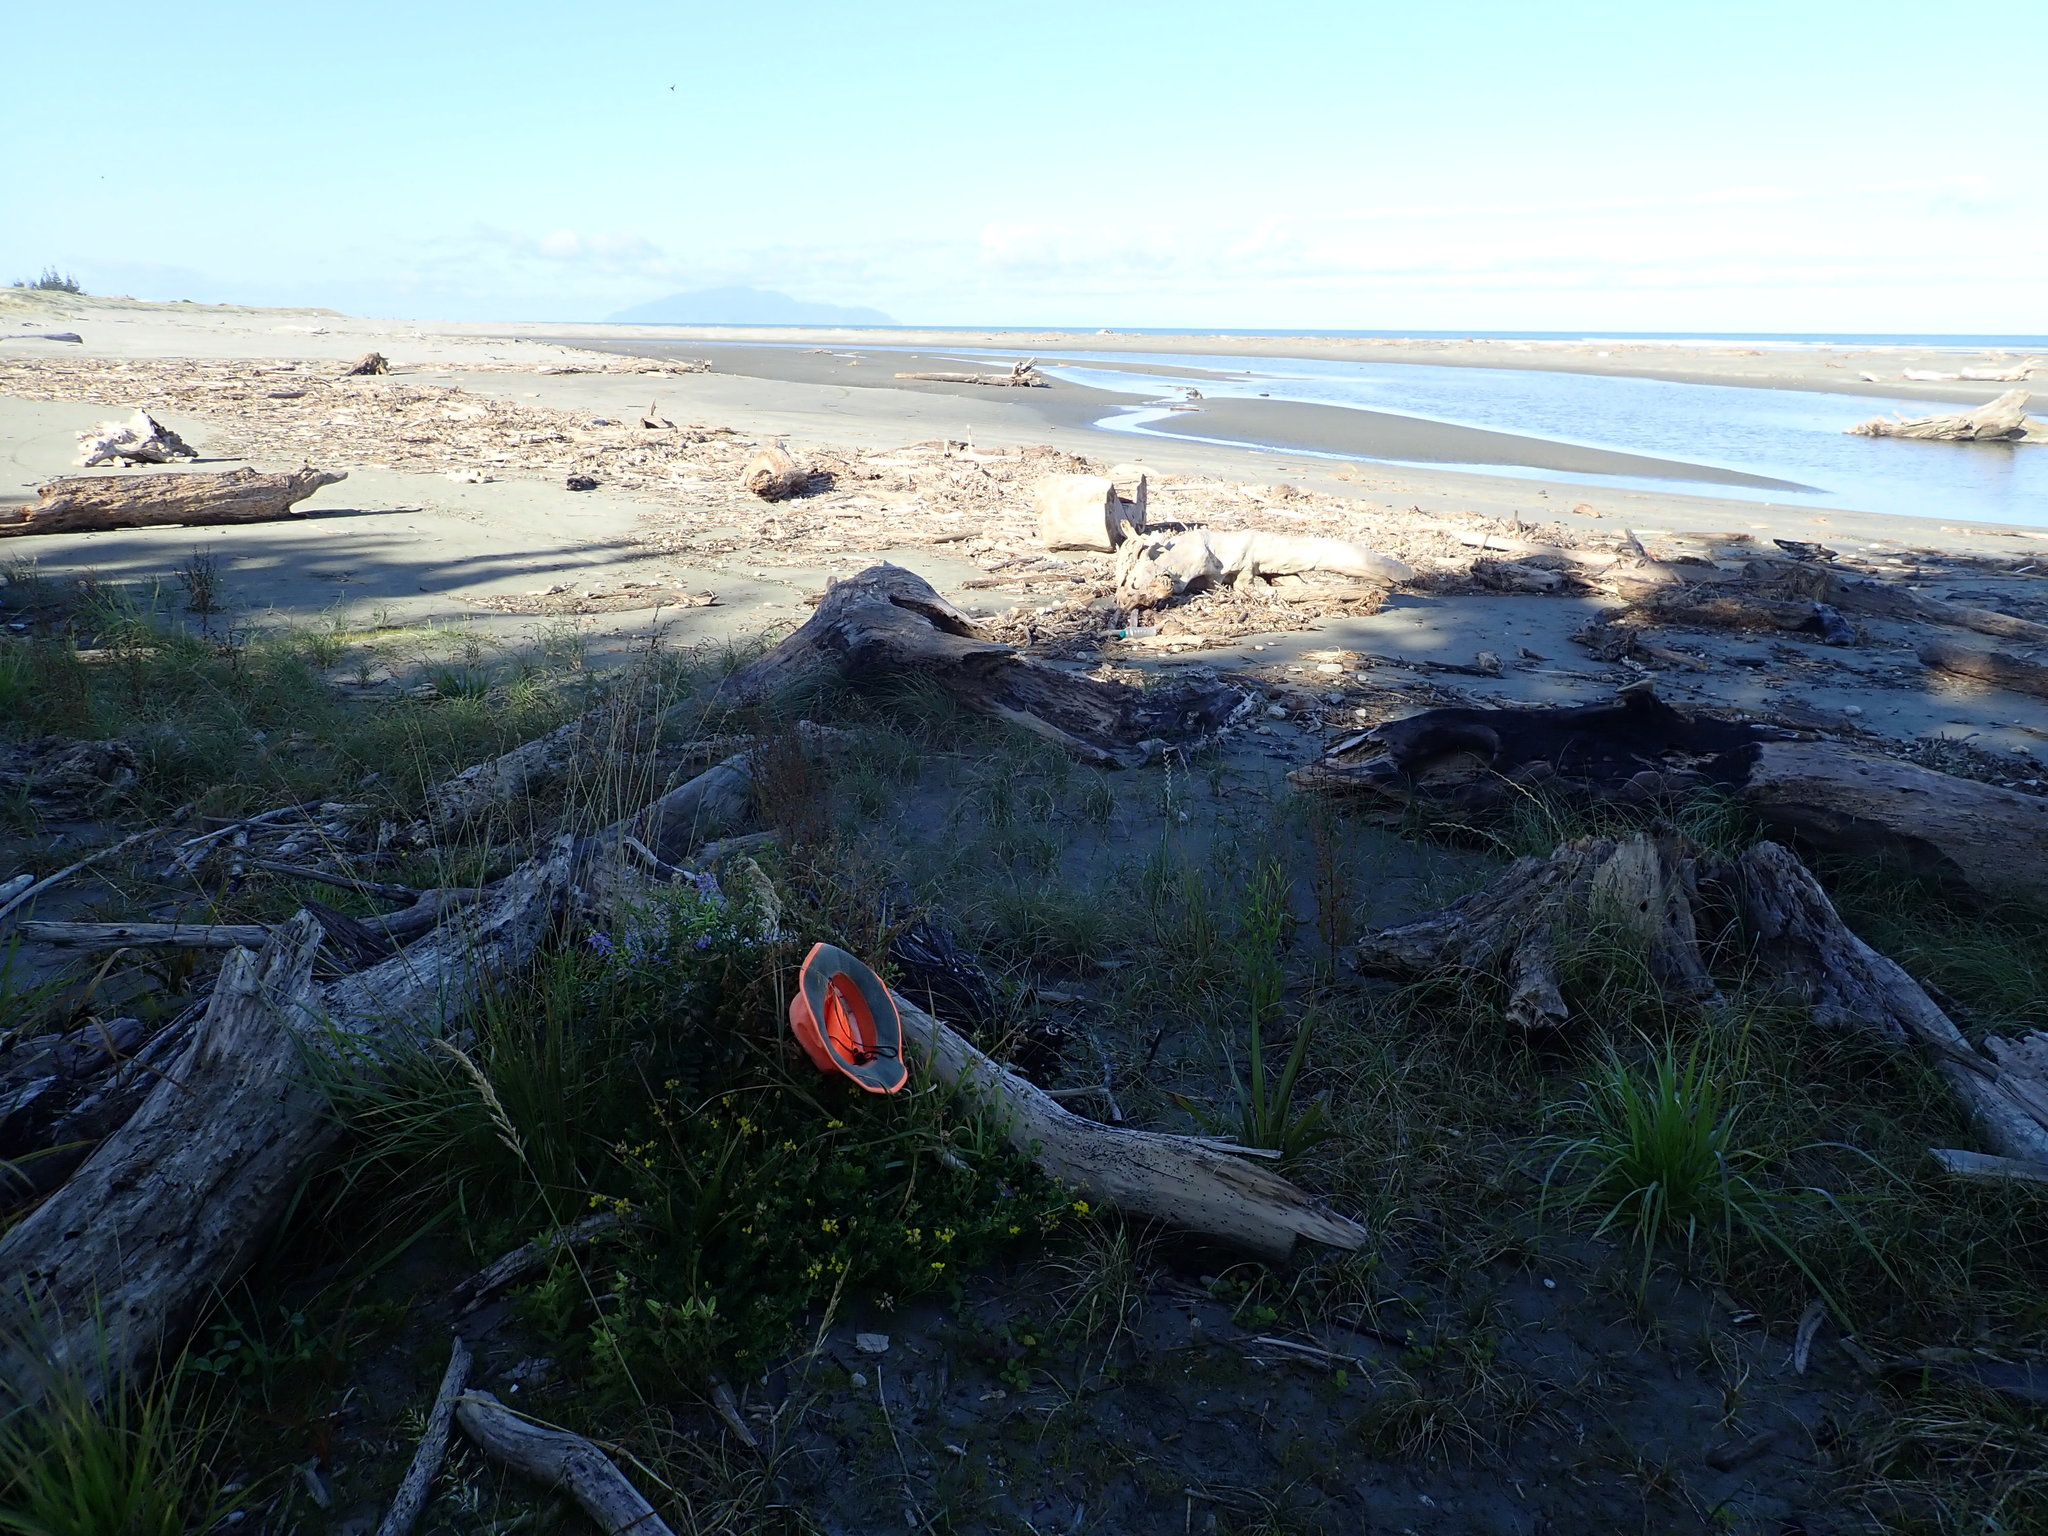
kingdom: Plantae
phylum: Tracheophyta
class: Magnoliopsida
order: Fabales
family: Fabaceae
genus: Galega
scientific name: Galega officinalis
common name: Goat's-rue
